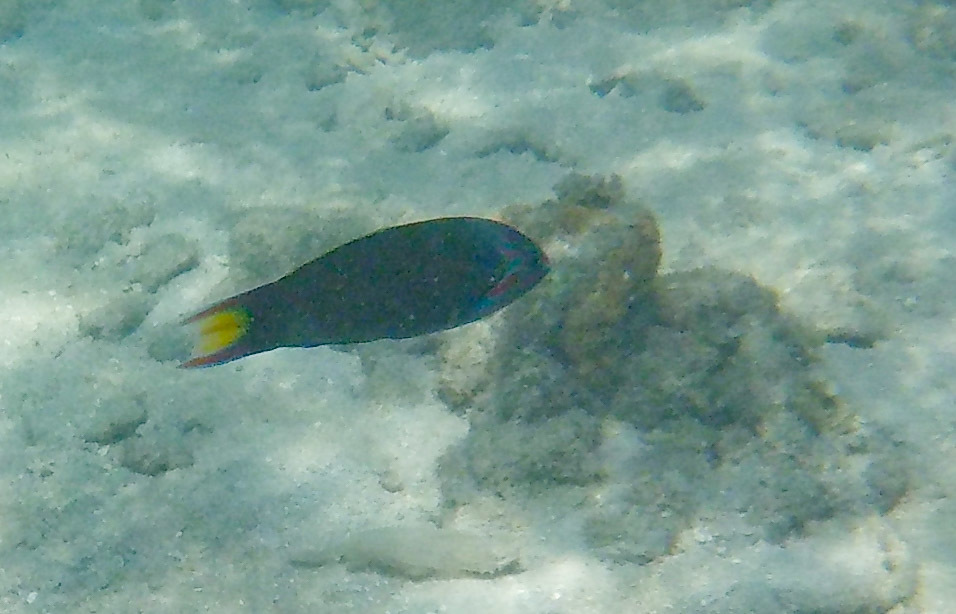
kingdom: Animalia
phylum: Chordata
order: Perciformes
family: Labridae
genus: Thalassoma
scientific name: Thalassoma lunare
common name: Blue wrasse
